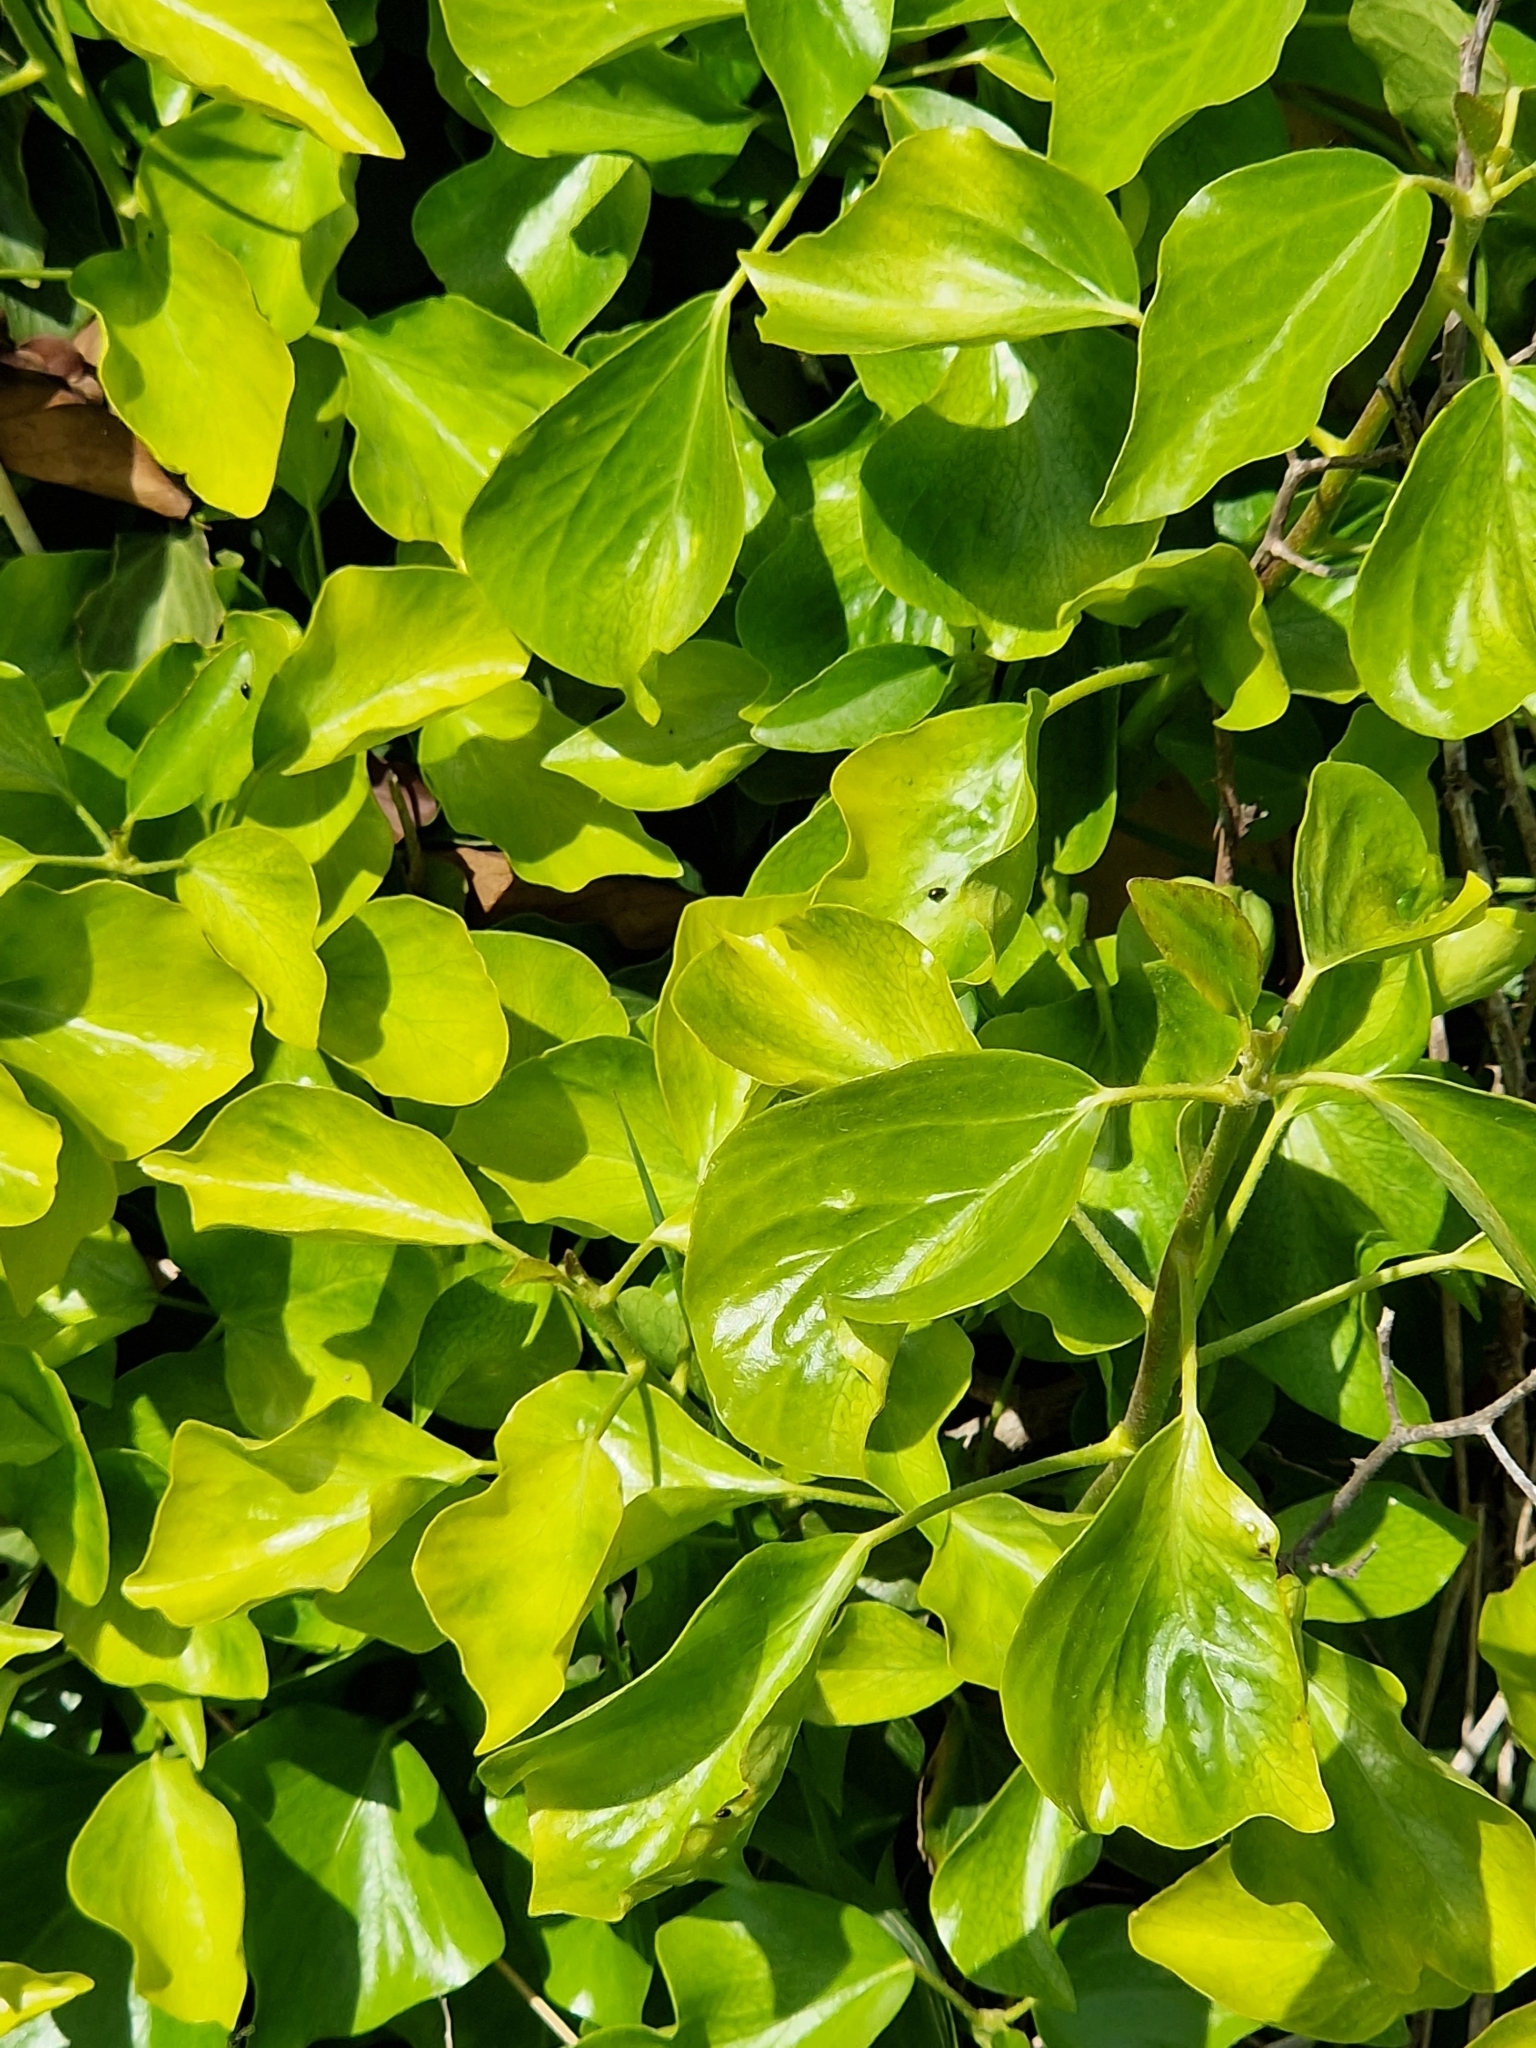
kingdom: Plantae
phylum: Tracheophyta
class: Magnoliopsida
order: Apiales
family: Araliaceae
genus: Hedera
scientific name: Hedera helix
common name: Ivy
